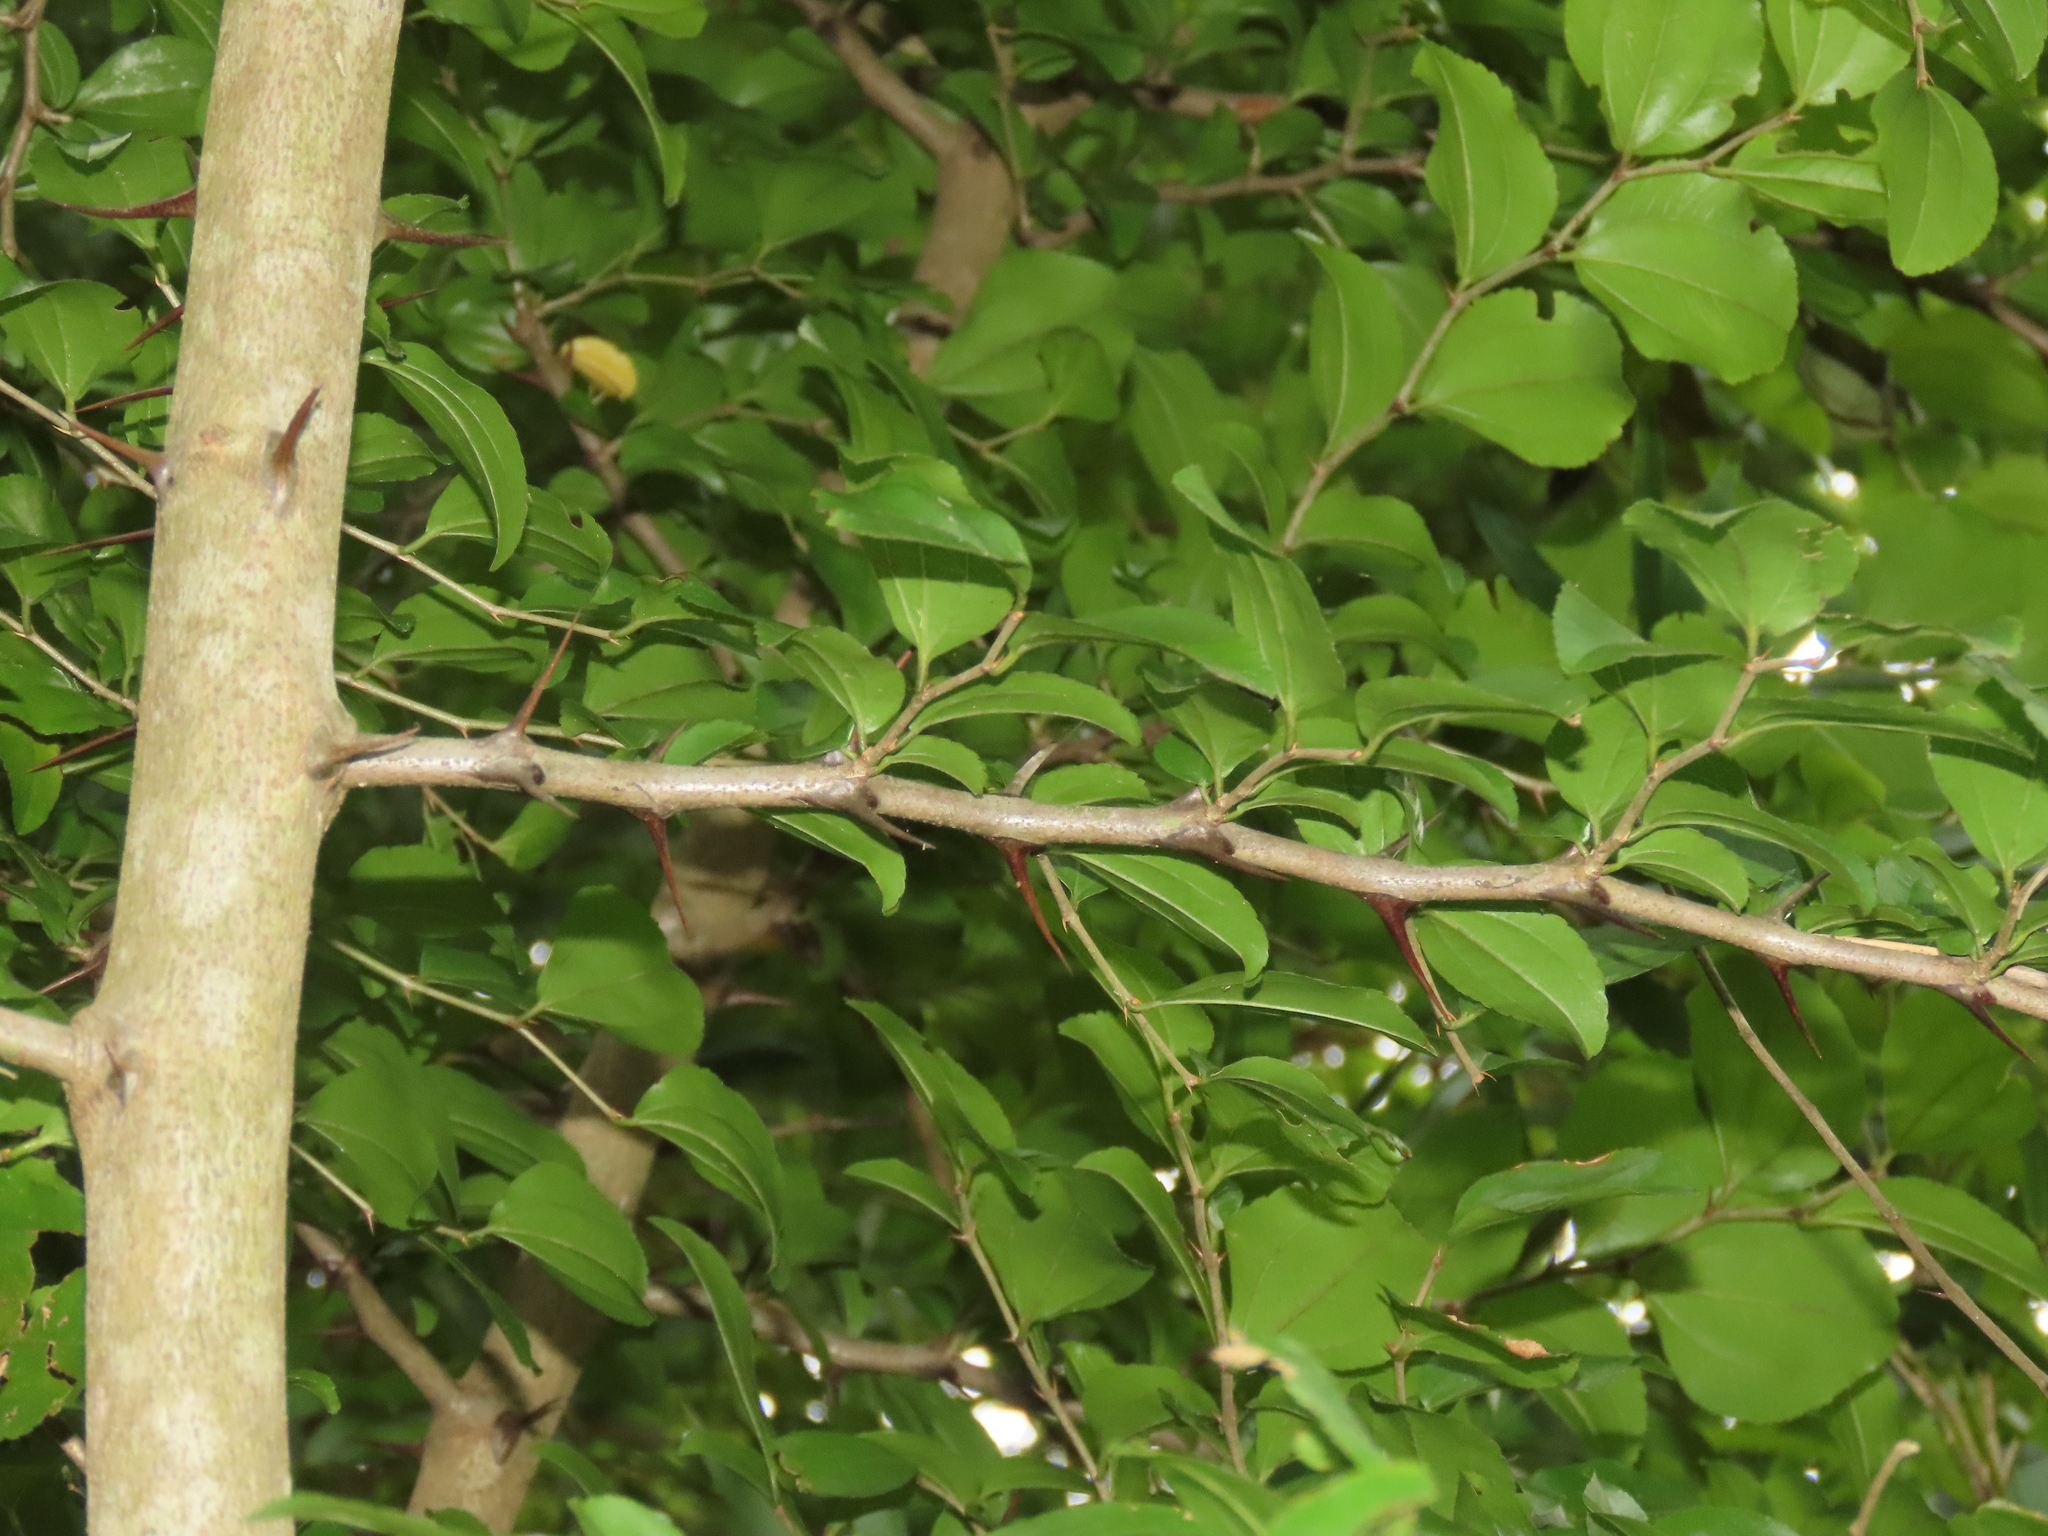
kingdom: Plantae
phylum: Tracheophyta
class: Magnoliopsida
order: Rosales
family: Rhamnaceae
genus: Paliurus
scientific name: Paliurus ramosissimus
